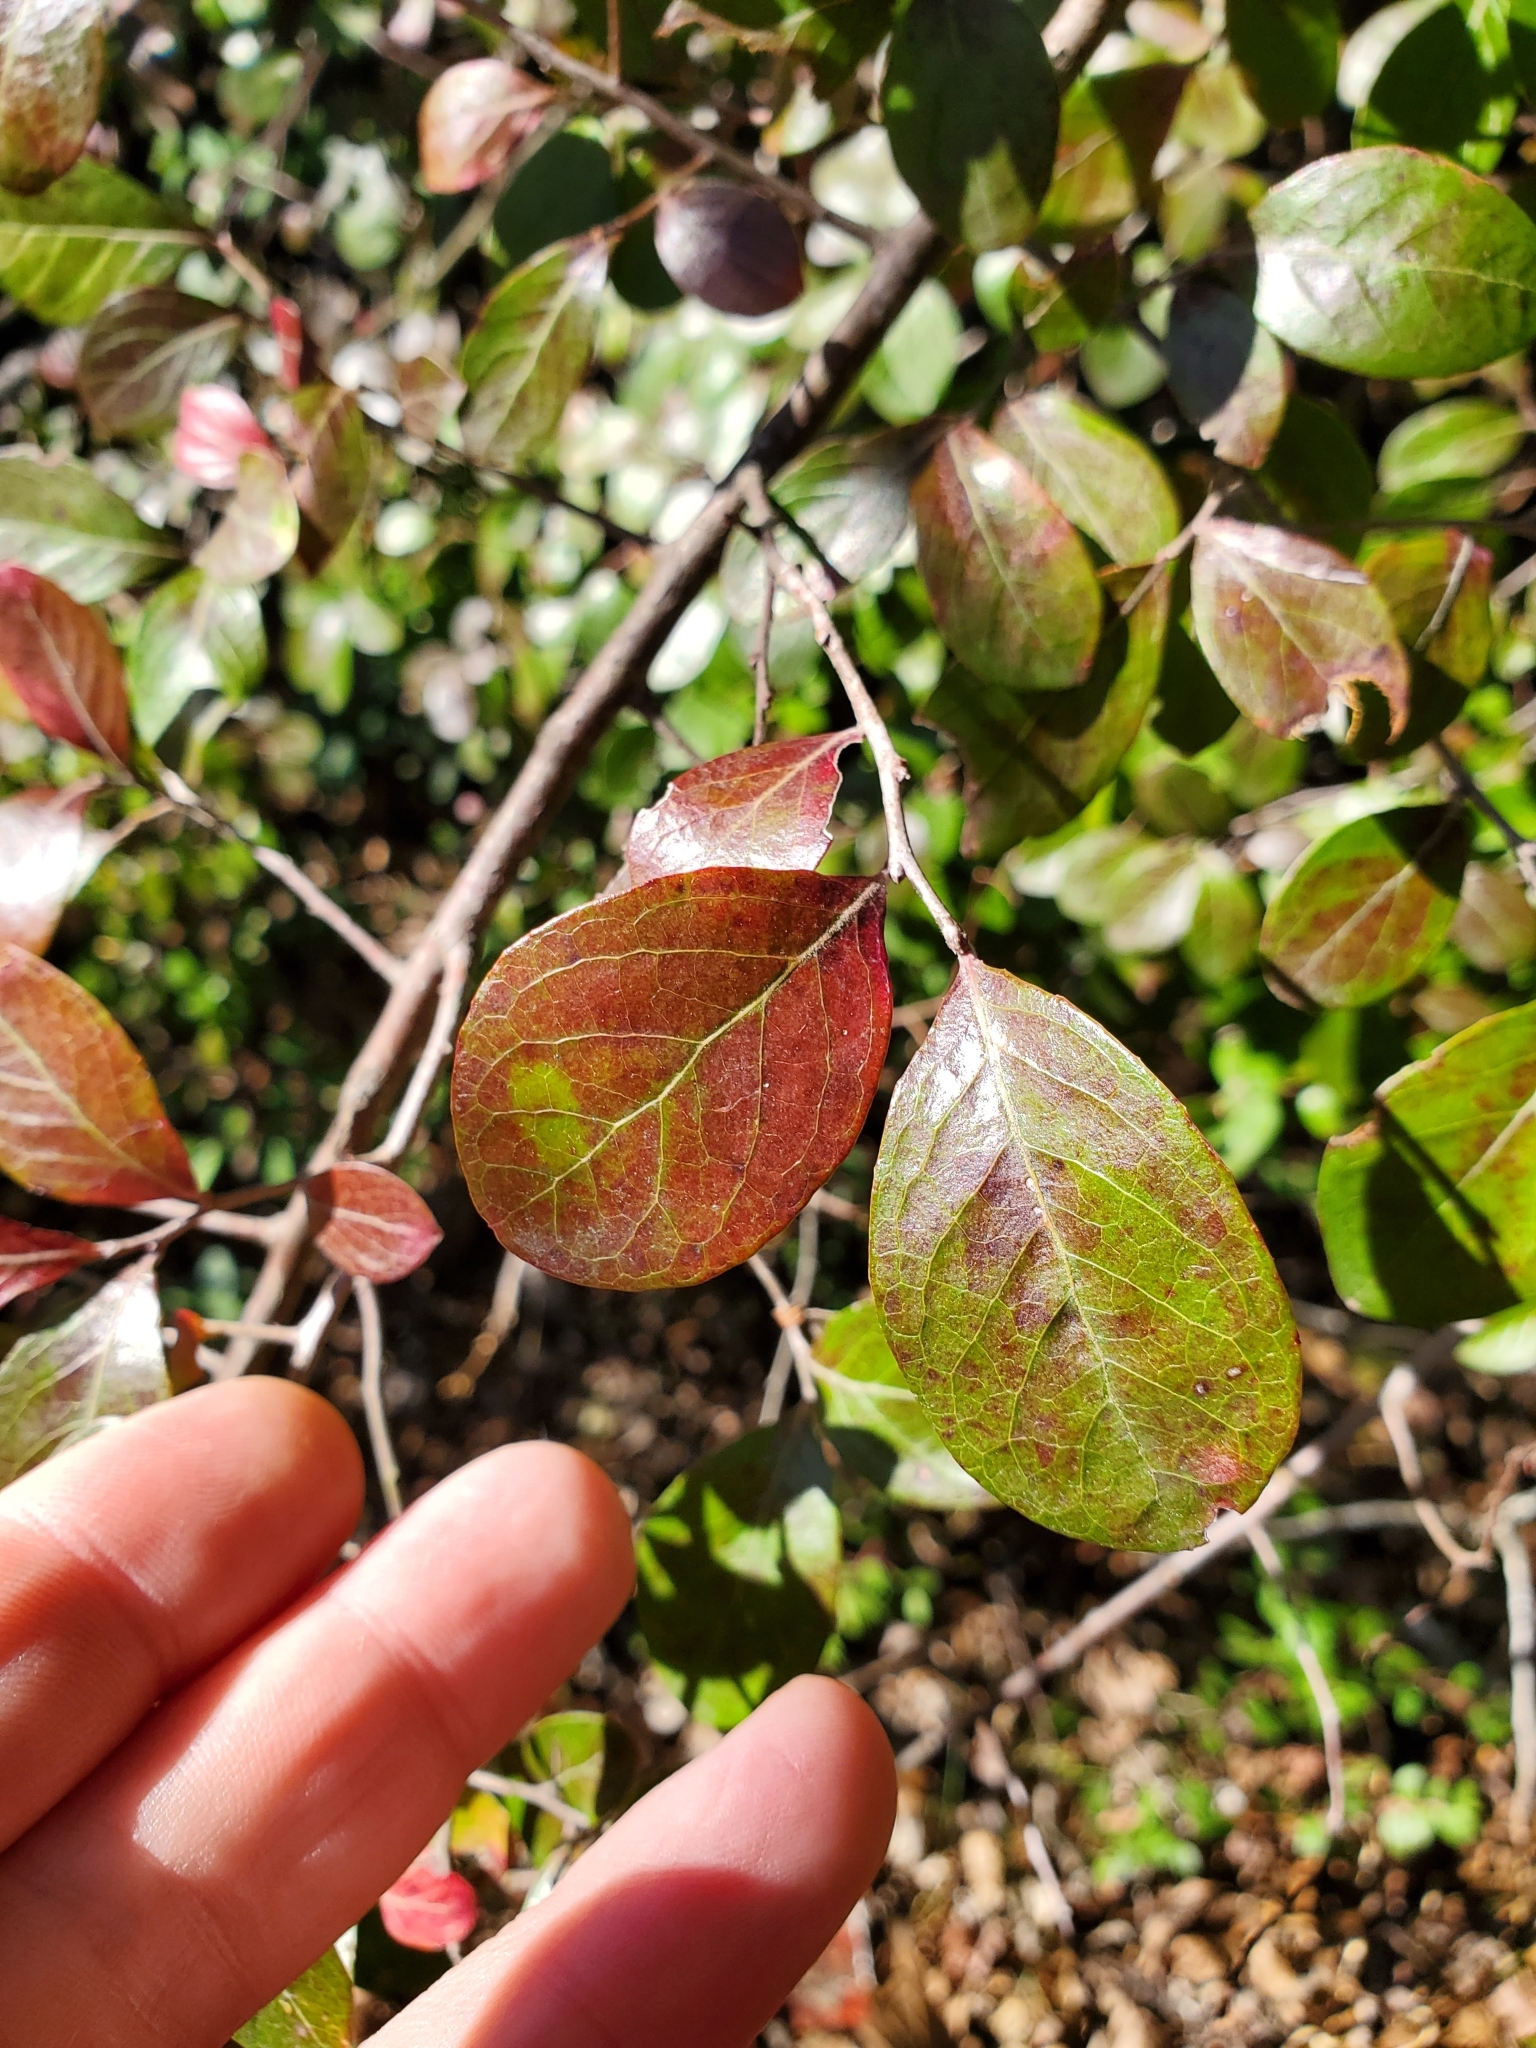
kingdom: Plantae
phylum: Tracheophyta
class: Magnoliopsida
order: Ericales
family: Ericaceae
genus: Vaccinium
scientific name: Vaccinium arboreum
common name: Farkleberry
